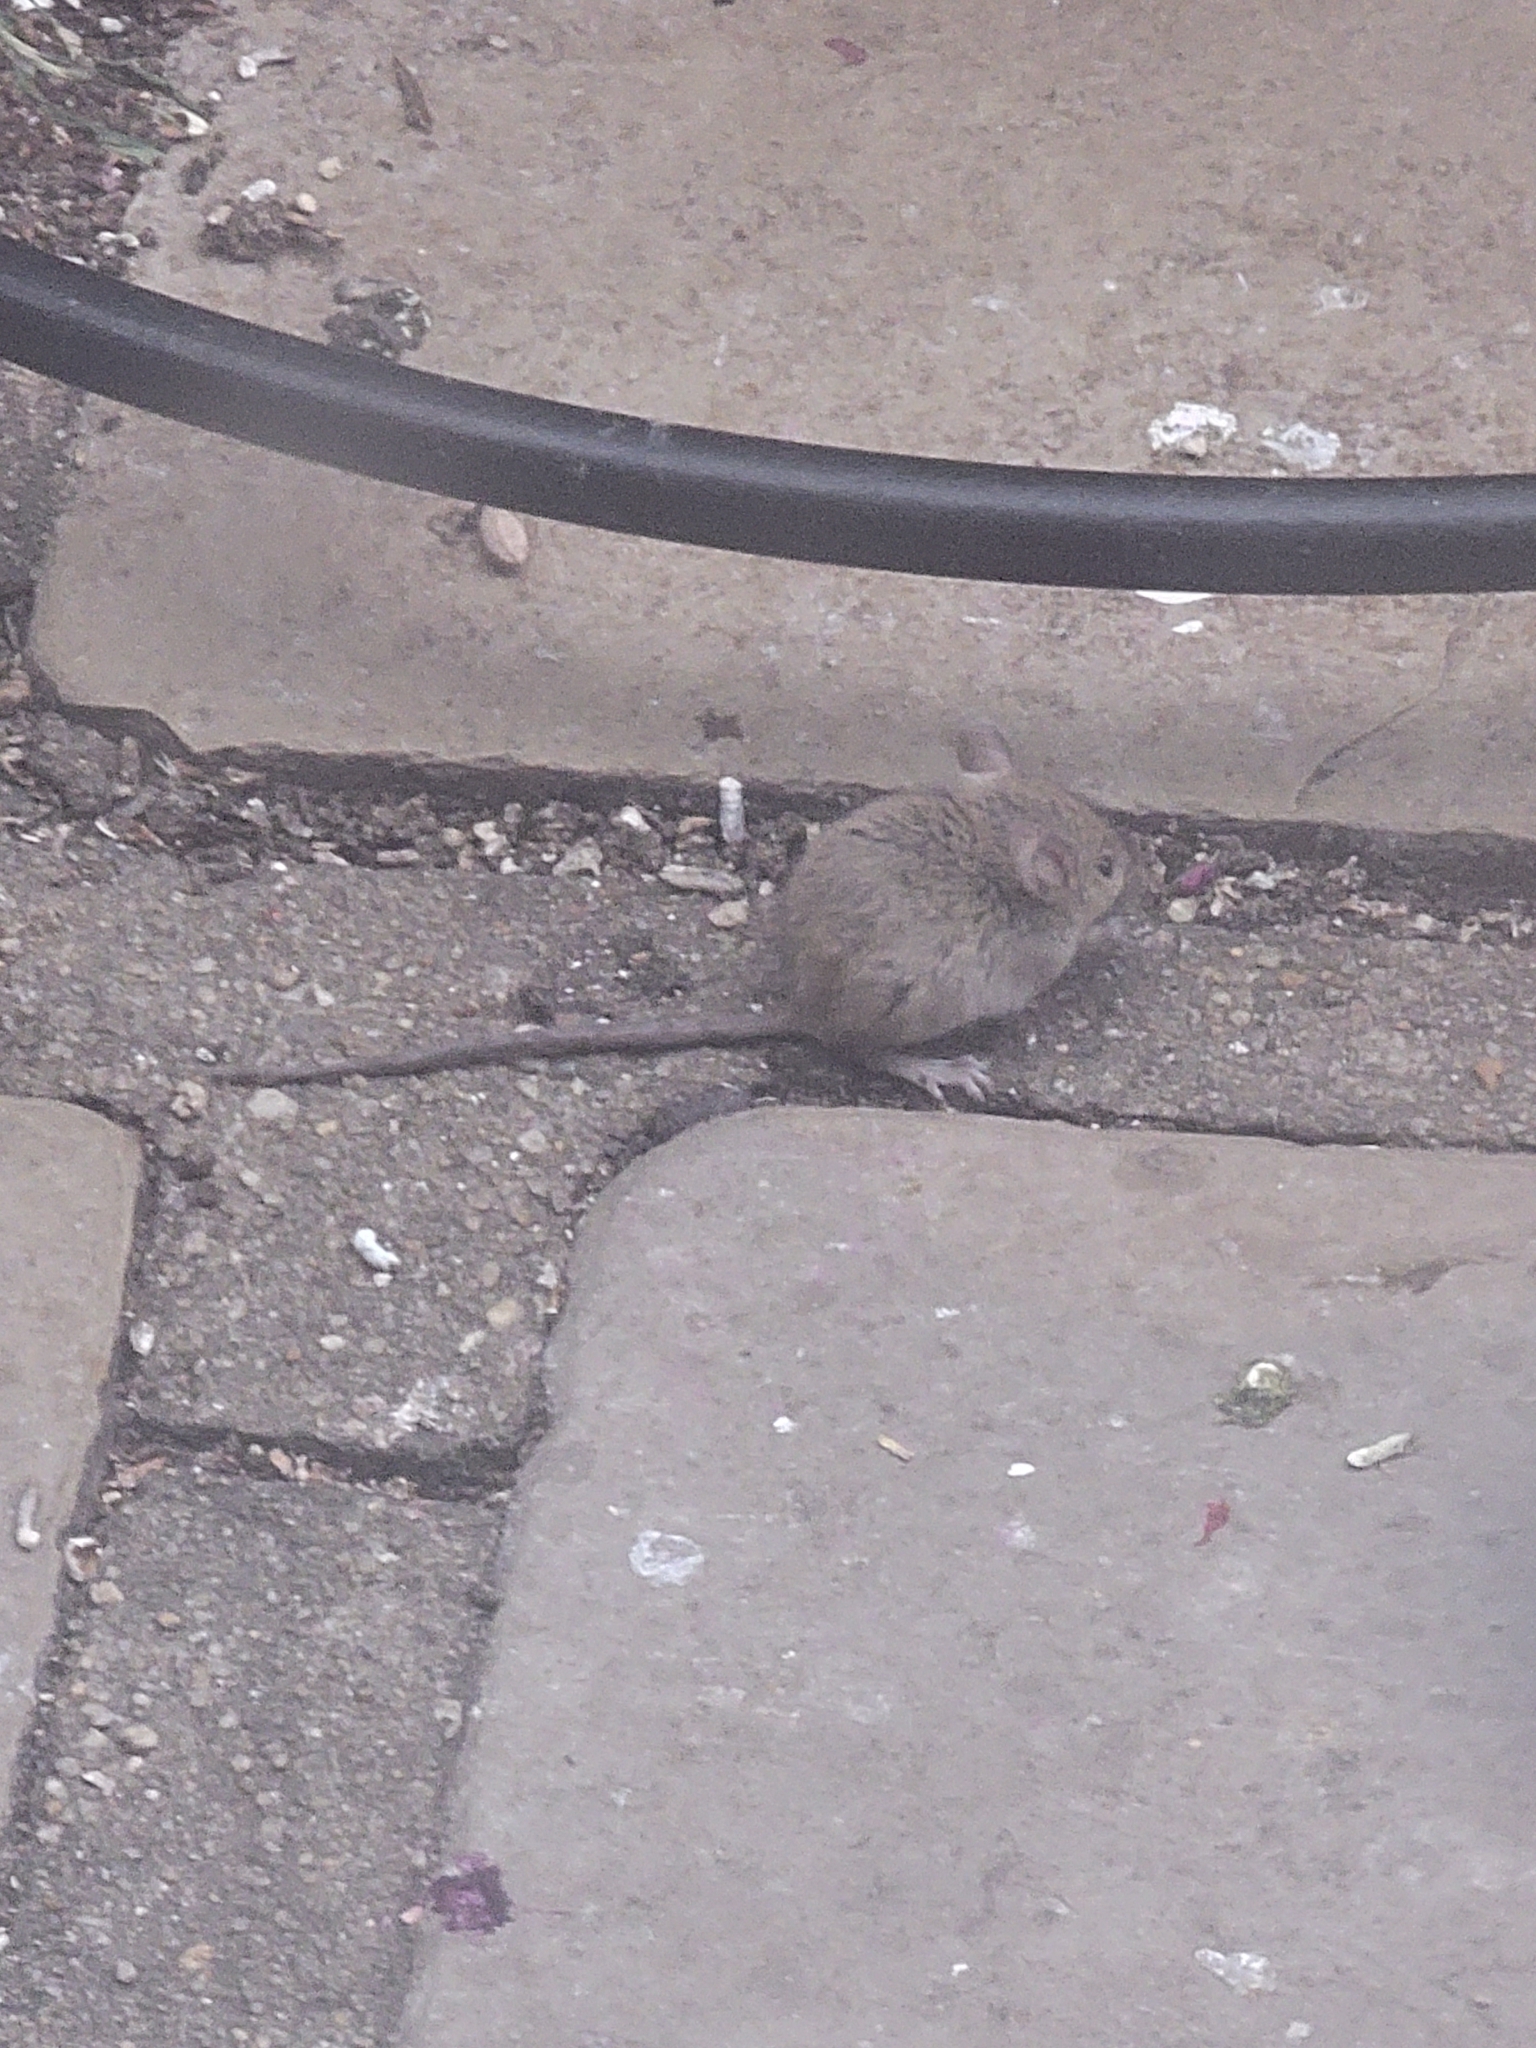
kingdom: Animalia
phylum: Chordata
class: Mammalia
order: Rodentia
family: Muridae
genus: Mus
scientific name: Mus musculus
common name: House mouse
